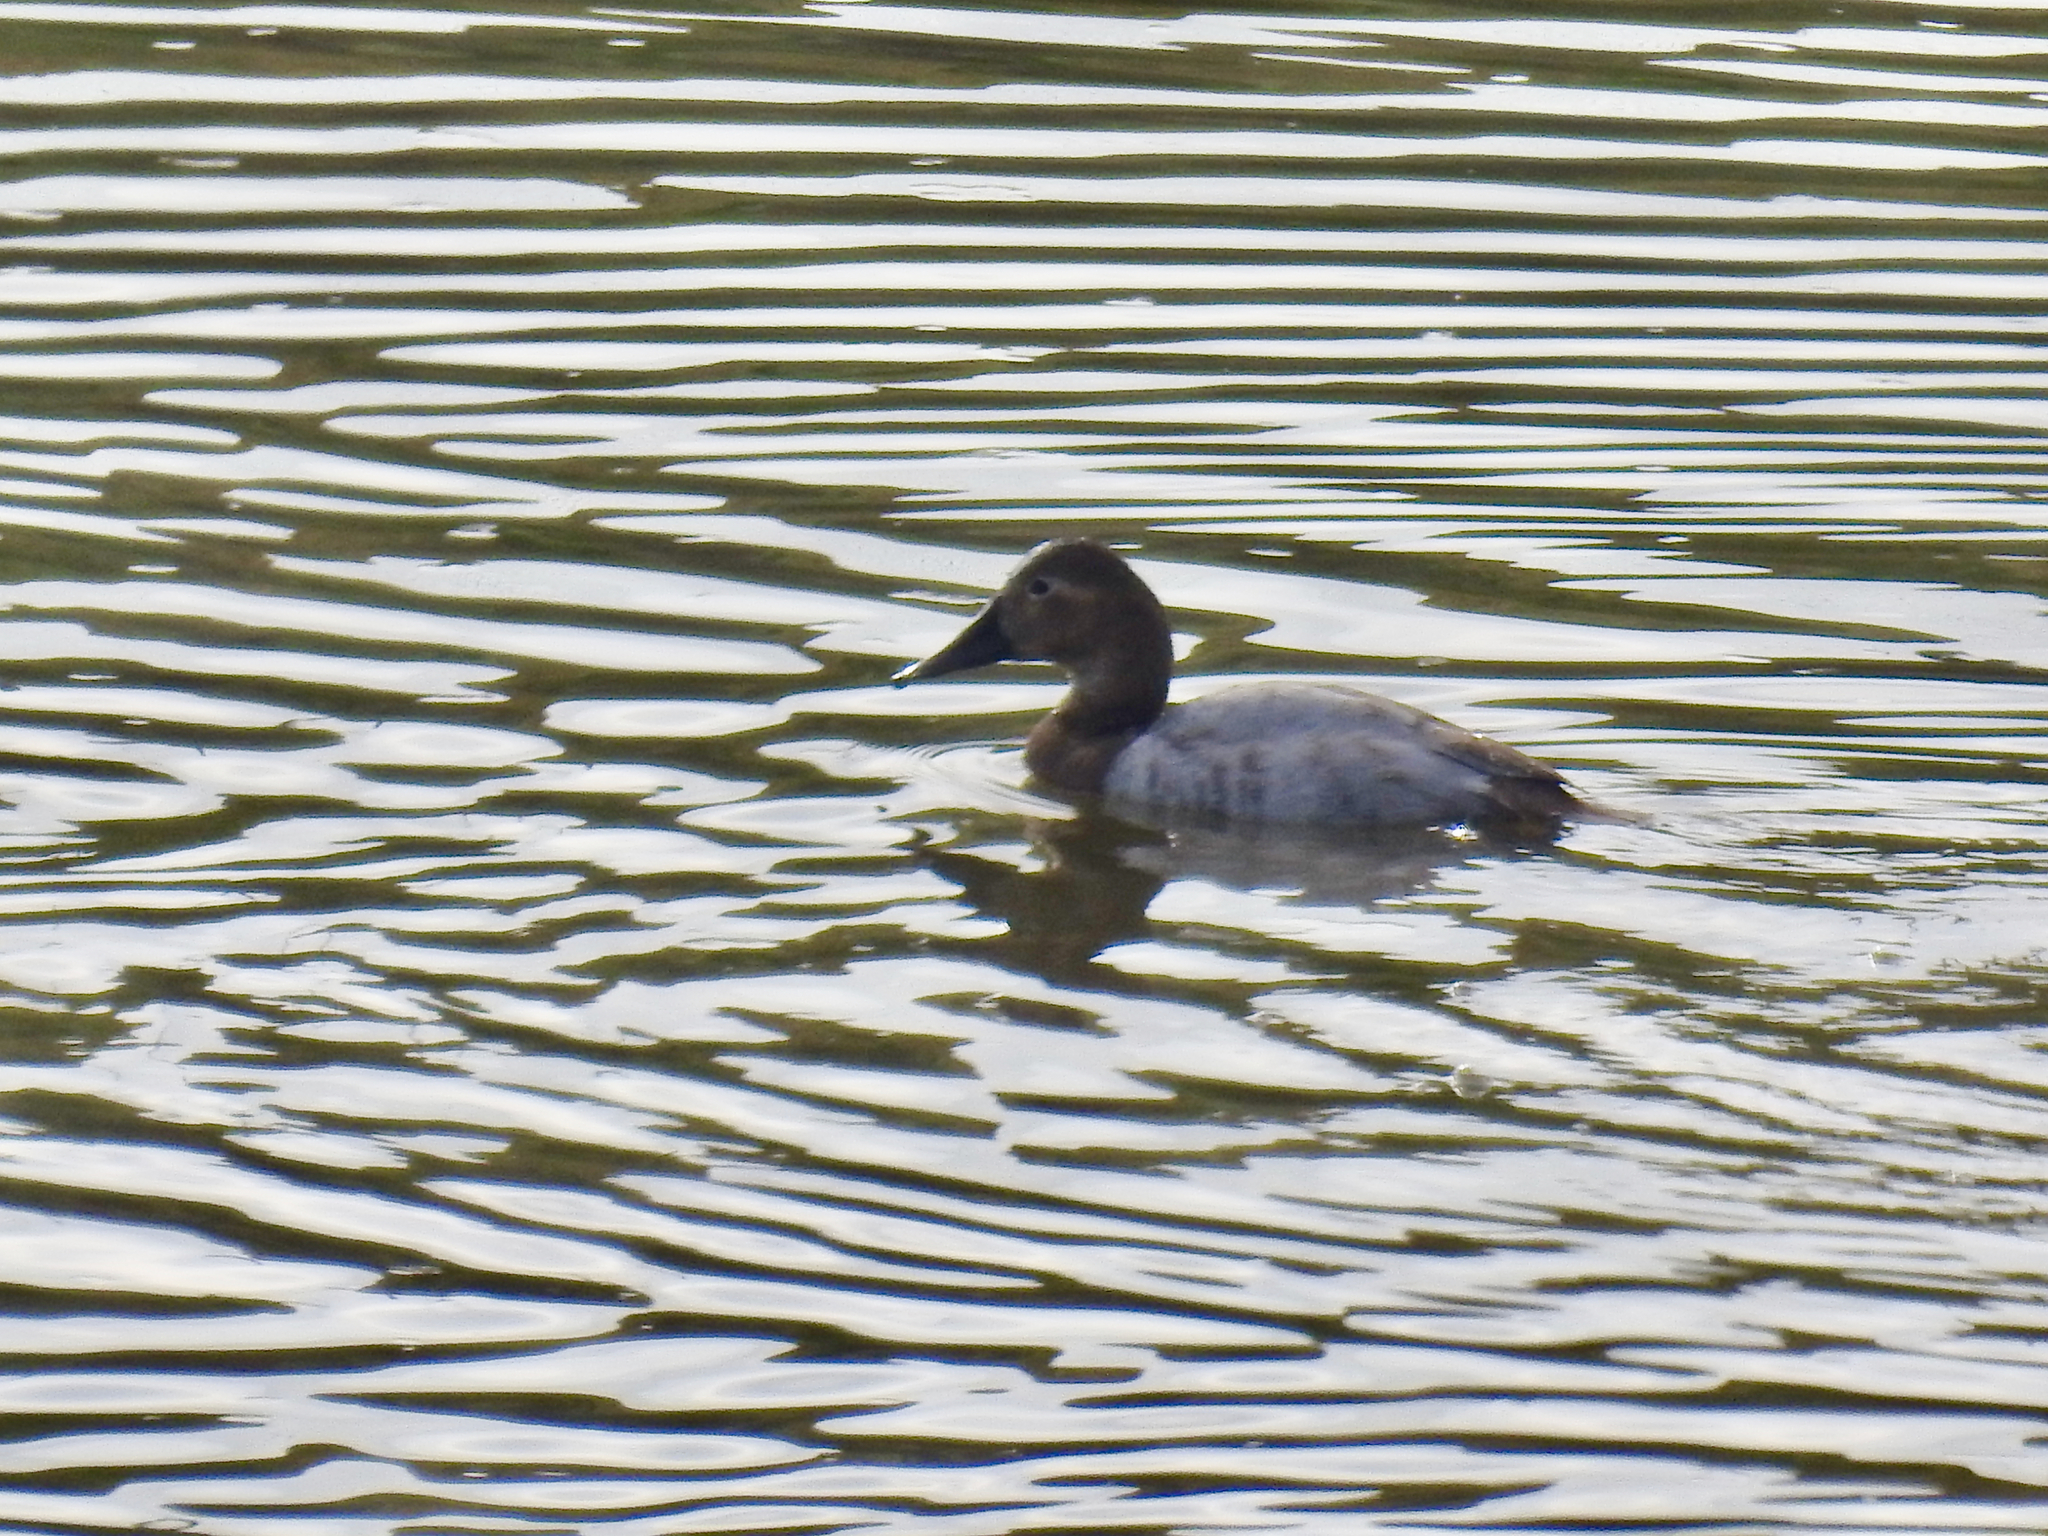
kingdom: Animalia
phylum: Chordata
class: Aves
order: Anseriformes
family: Anatidae
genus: Aythya
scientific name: Aythya valisineria
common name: Canvasback
